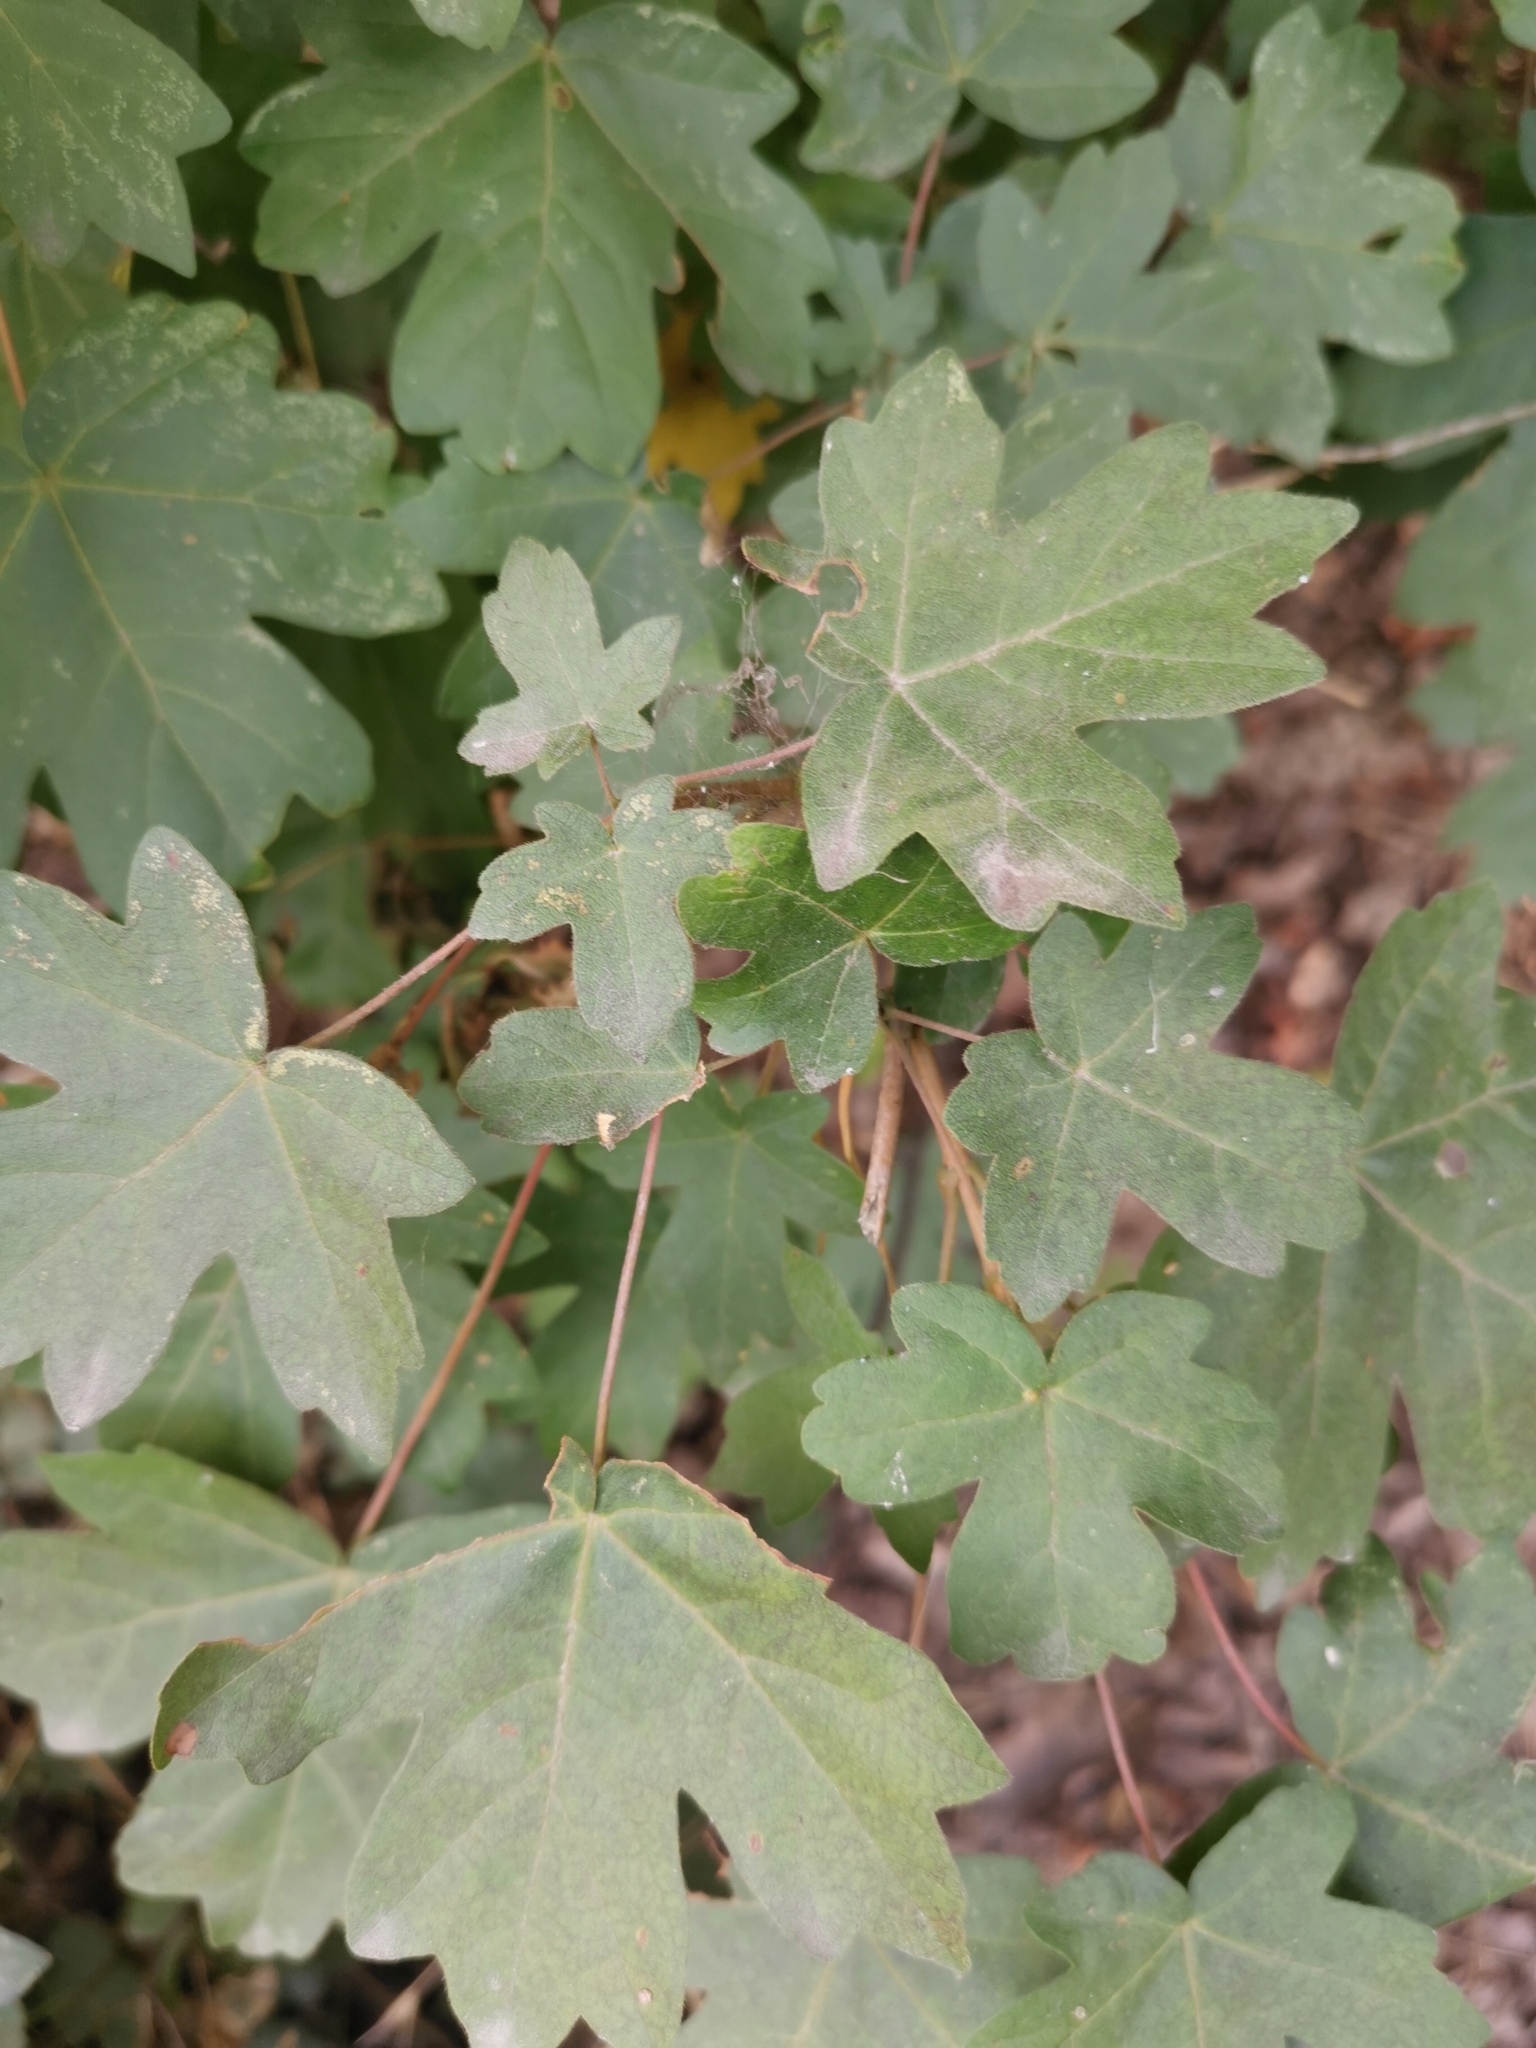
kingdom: Plantae
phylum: Tracheophyta
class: Magnoliopsida
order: Sapindales
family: Sapindaceae
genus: Acer
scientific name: Acer campestre
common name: Field maple
